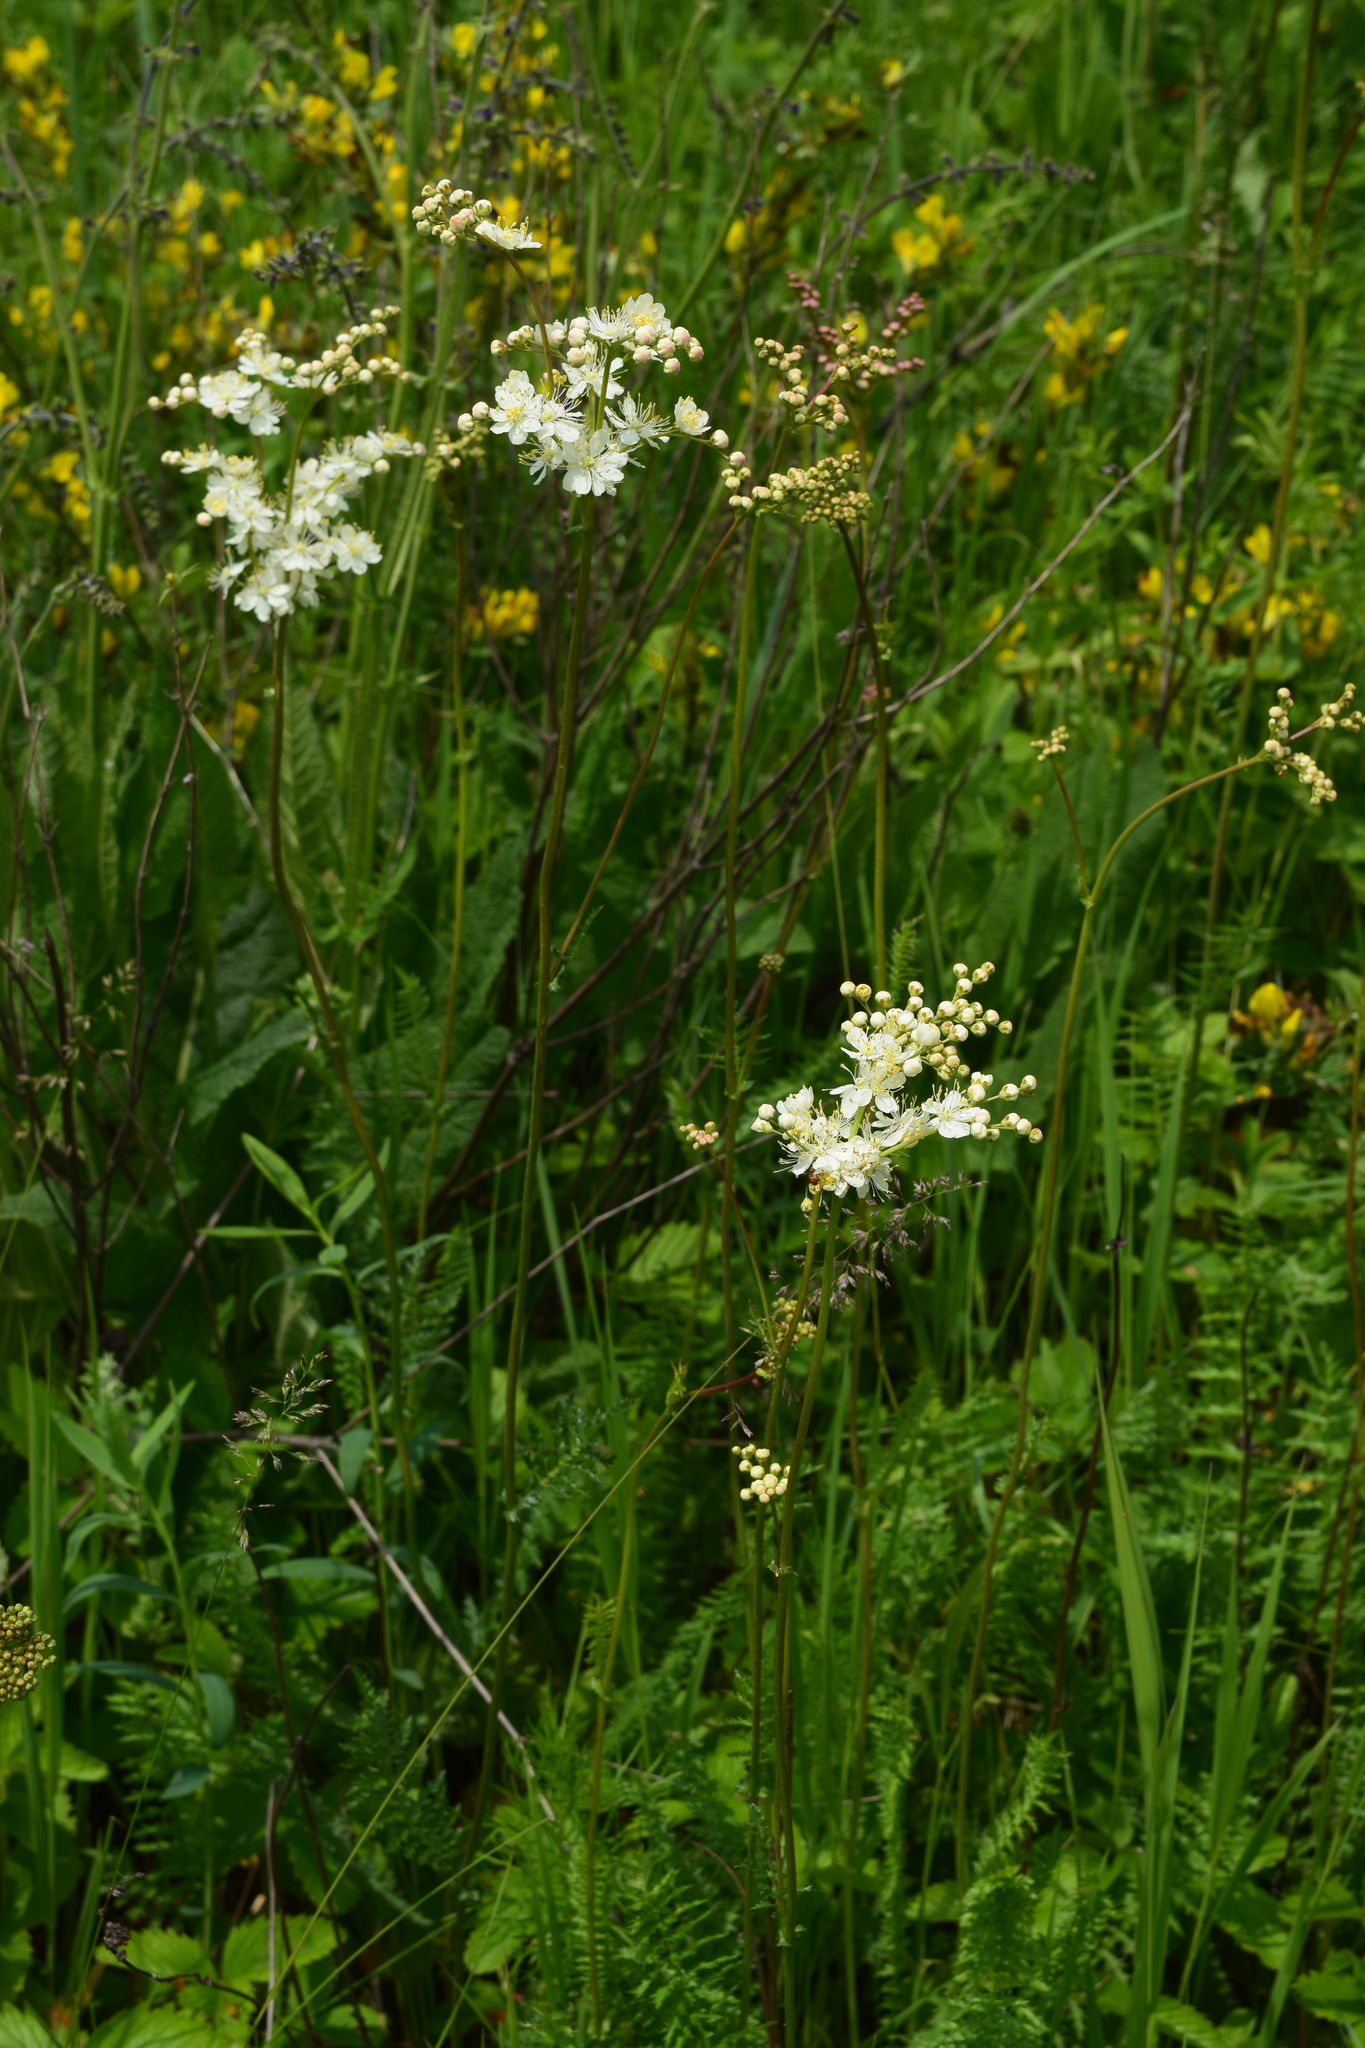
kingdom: Plantae
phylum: Tracheophyta
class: Magnoliopsida
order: Rosales
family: Rosaceae
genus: Filipendula
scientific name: Filipendula vulgaris
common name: Dropwort
